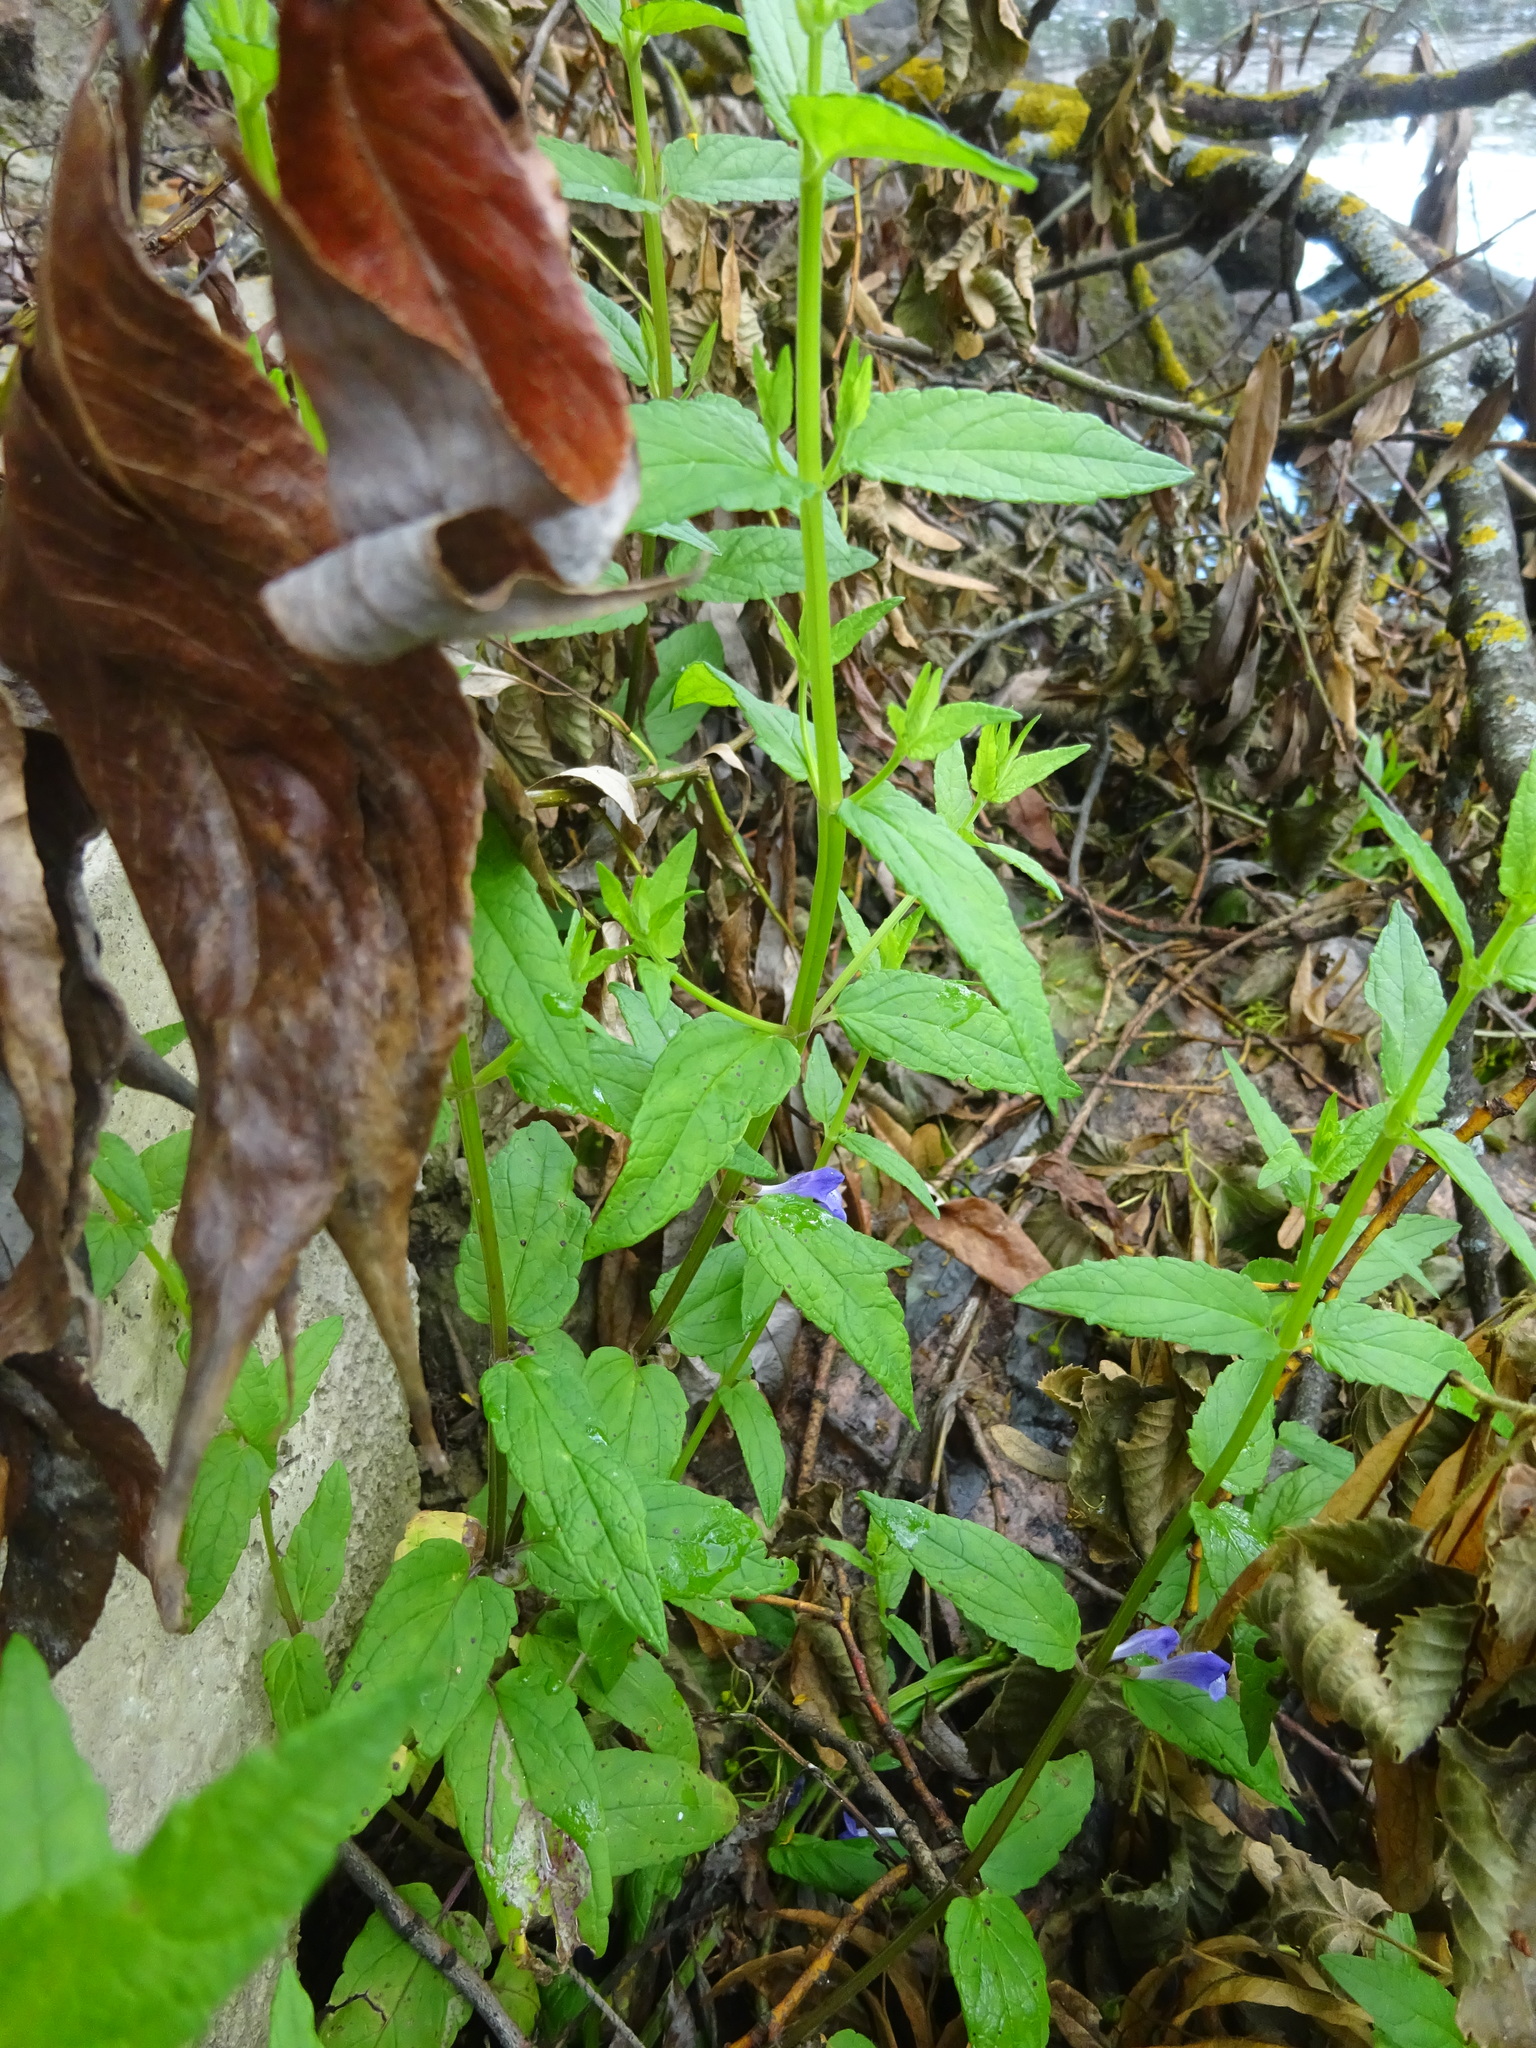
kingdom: Plantae
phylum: Tracheophyta
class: Magnoliopsida
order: Lamiales
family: Lamiaceae
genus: Scutellaria
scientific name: Scutellaria galericulata
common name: Skullcap
